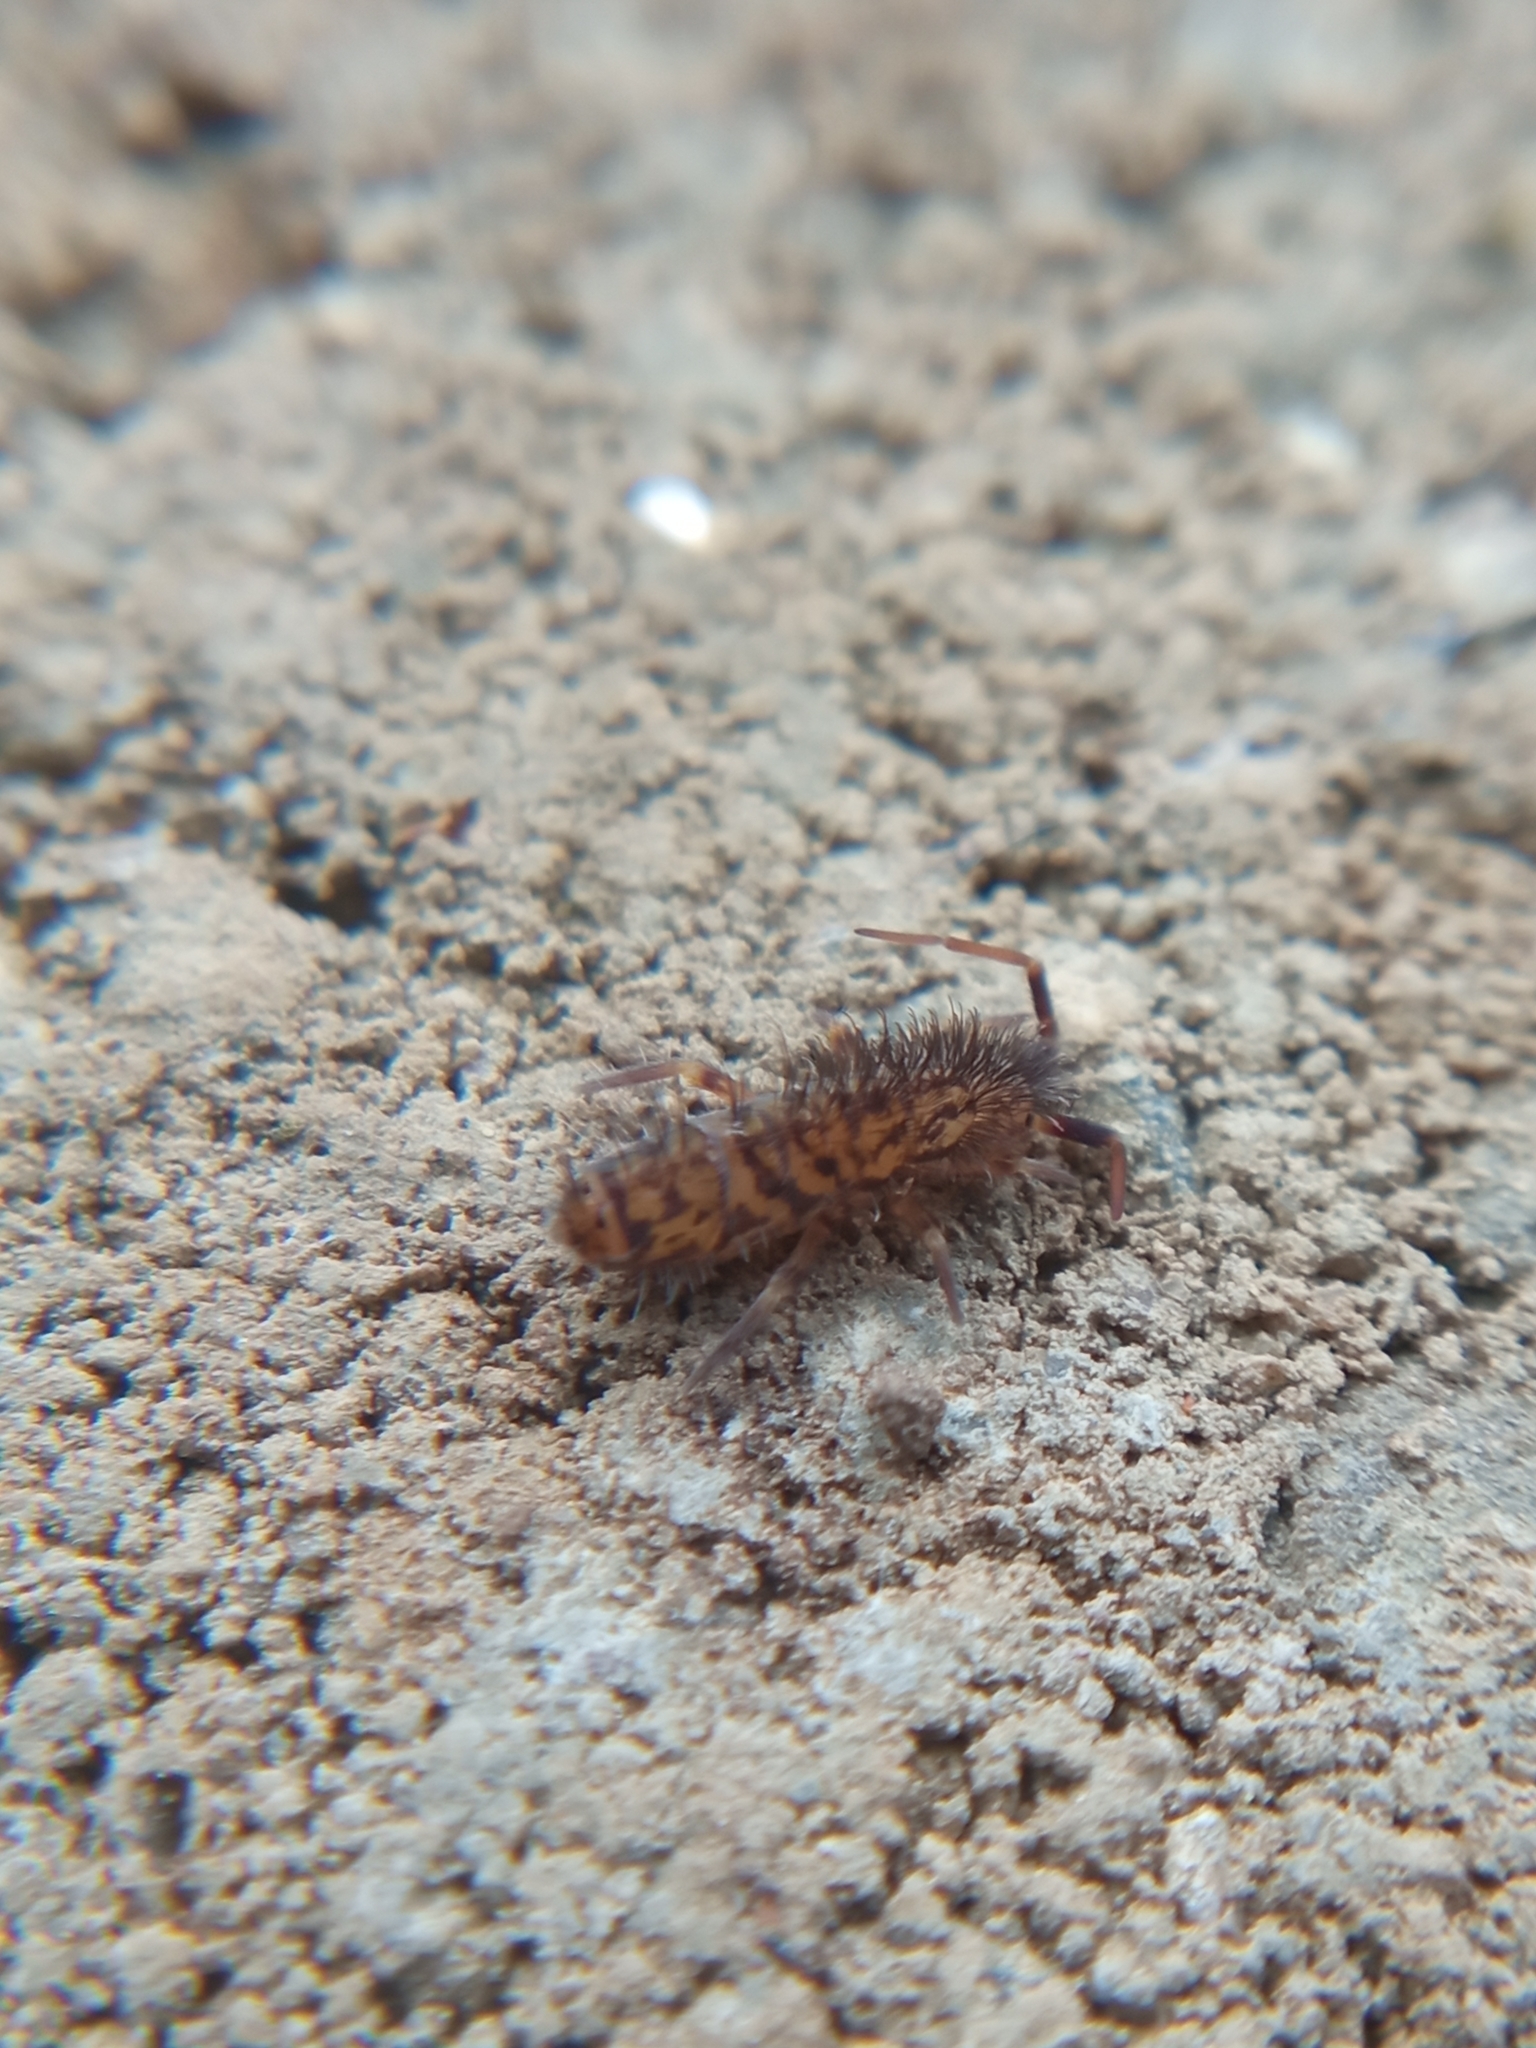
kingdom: Animalia
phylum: Arthropoda
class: Collembola
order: Entomobryomorpha
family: Orchesellidae
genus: Orchesella
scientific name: Orchesella villosa
